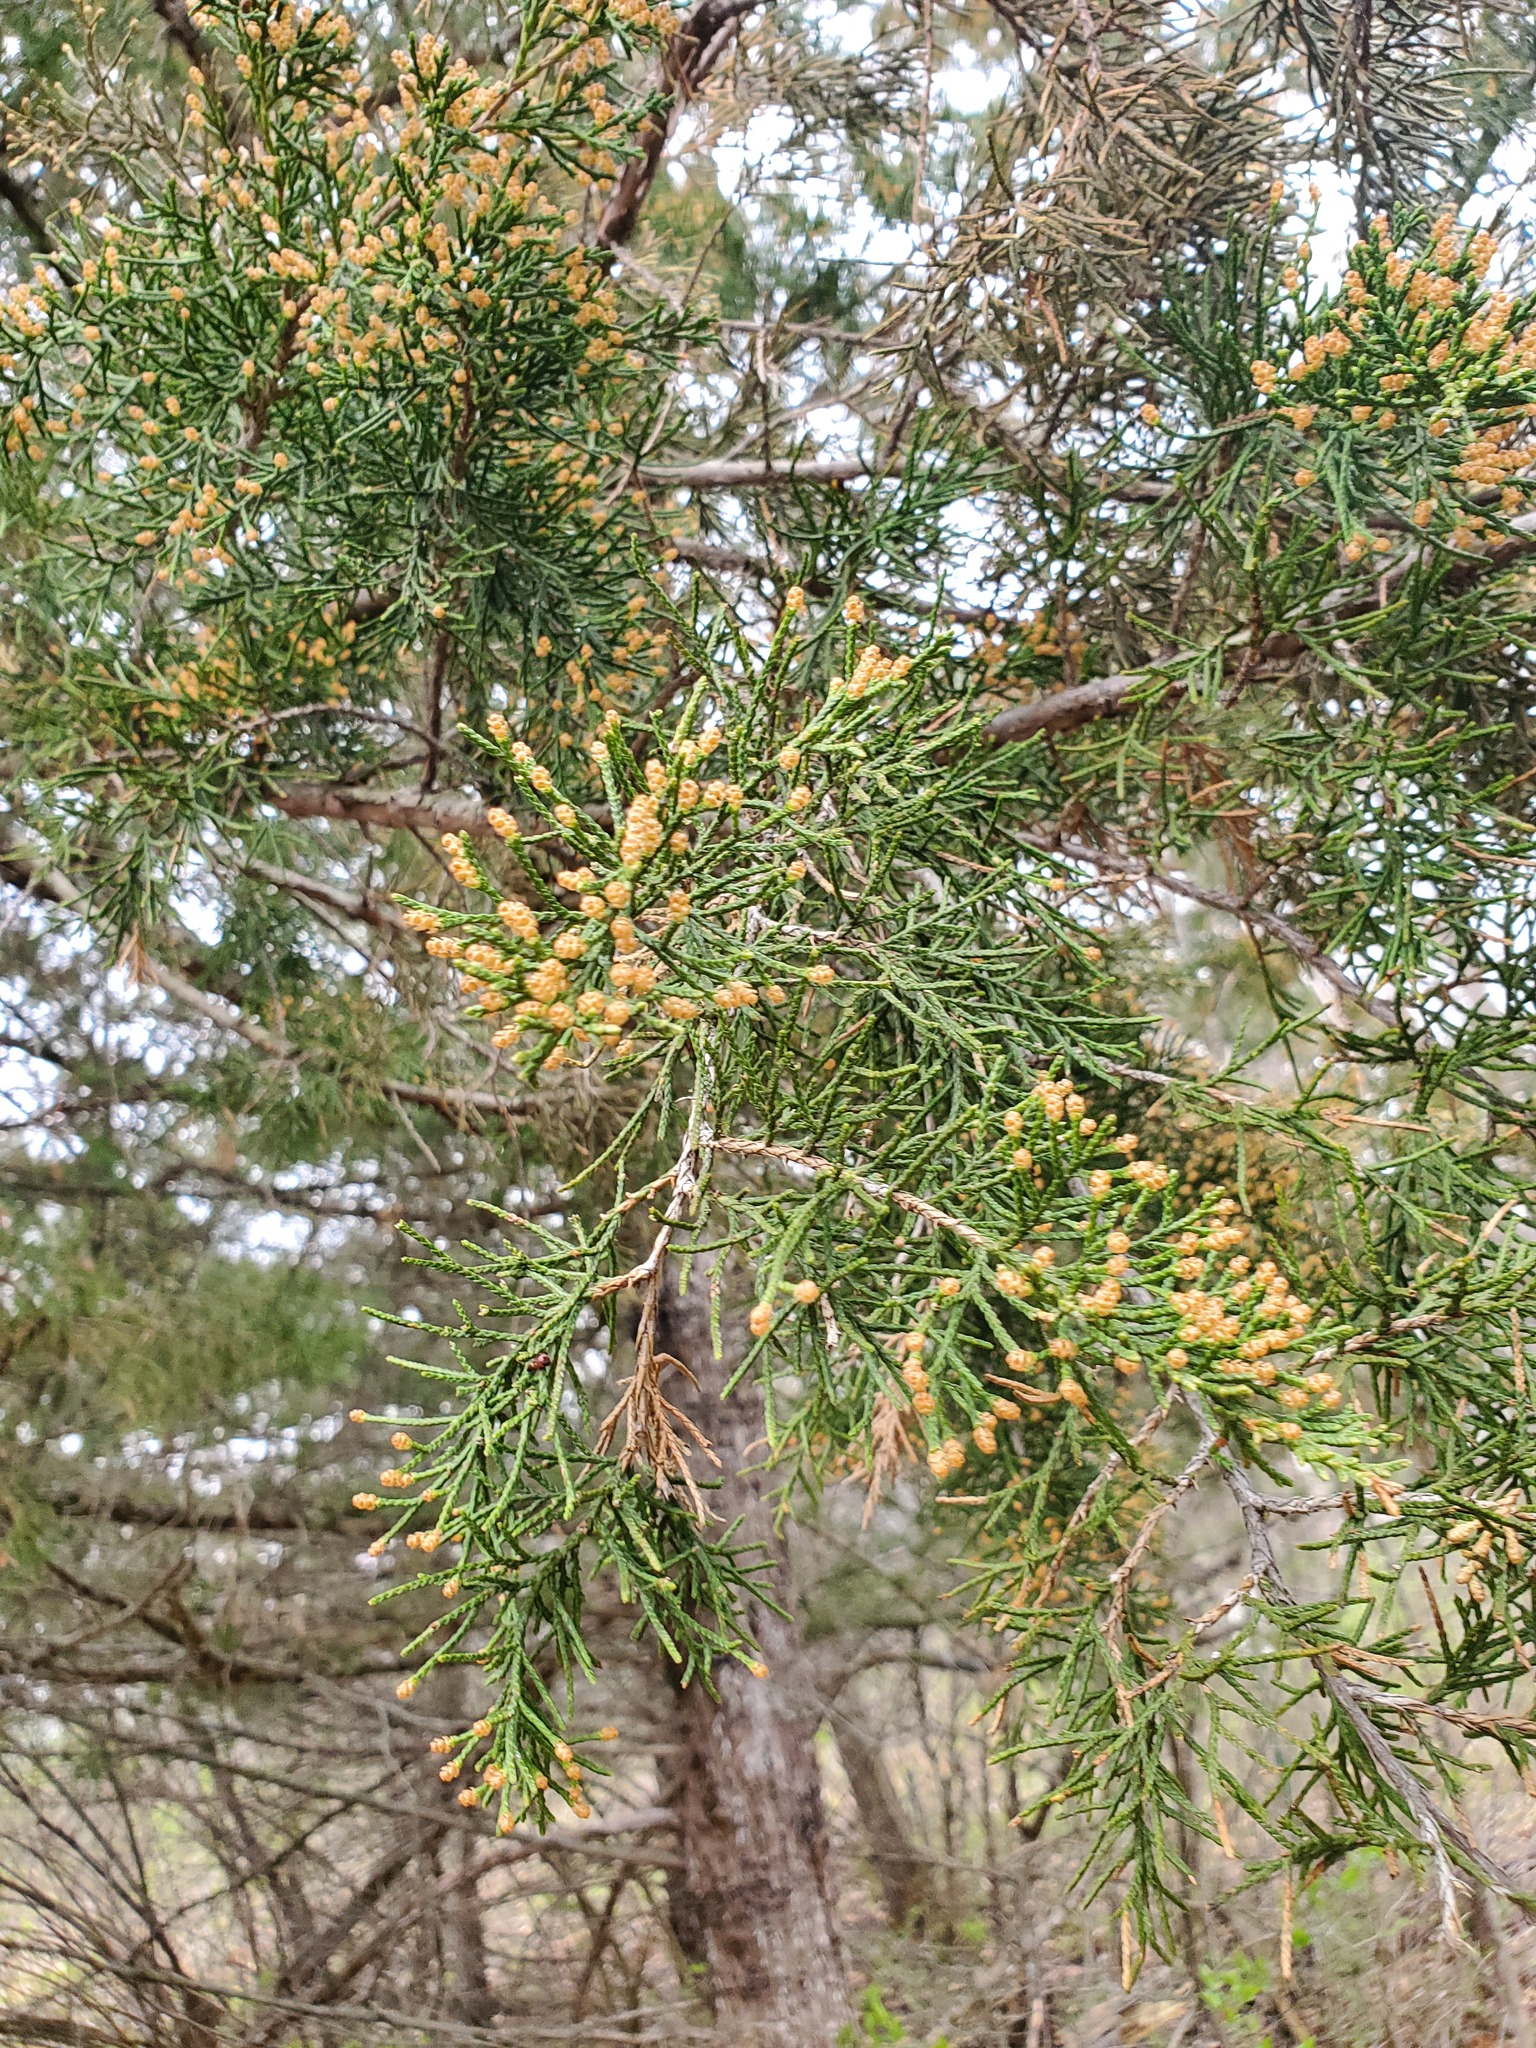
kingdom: Plantae
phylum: Tracheophyta
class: Pinopsida
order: Pinales
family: Cupressaceae
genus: Juniperus
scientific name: Juniperus virginiana
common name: Red juniper
